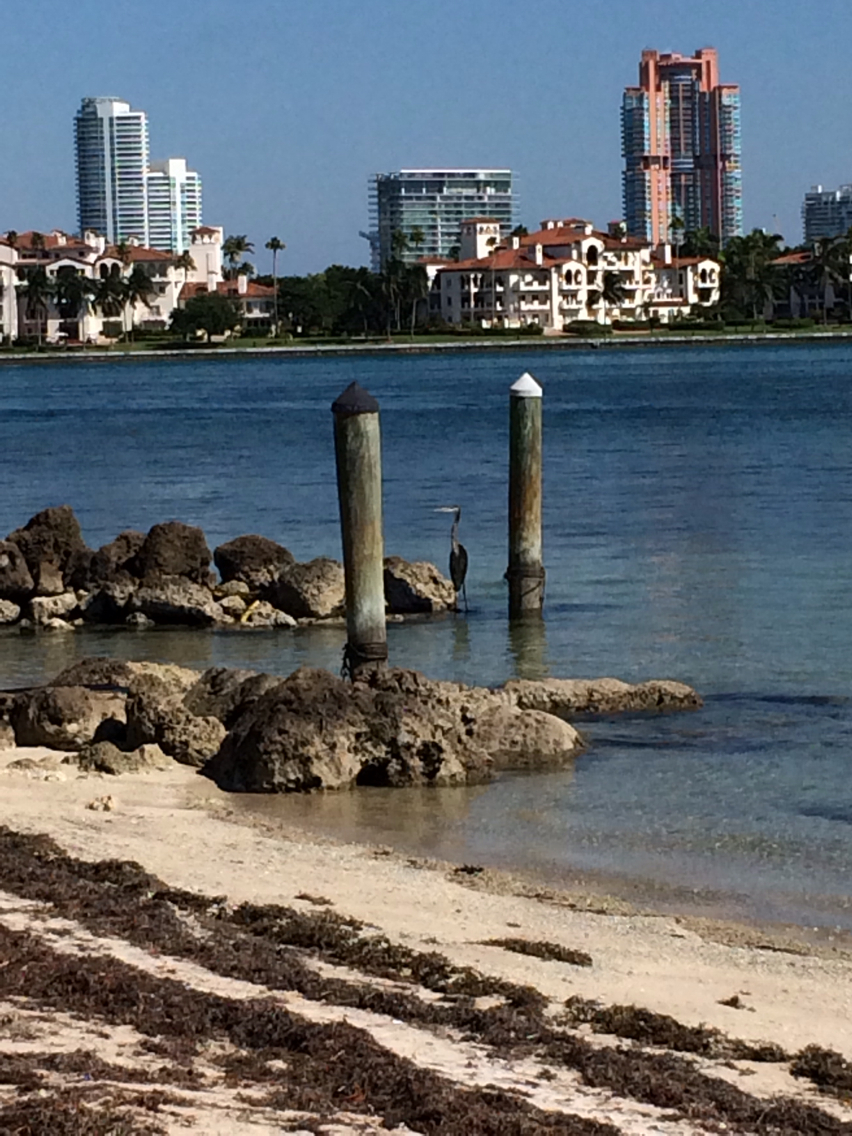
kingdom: Animalia
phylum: Chordata
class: Aves
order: Pelecaniformes
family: Ardeidae
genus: Ardea
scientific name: Ardea herodias
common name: Great blue heron
